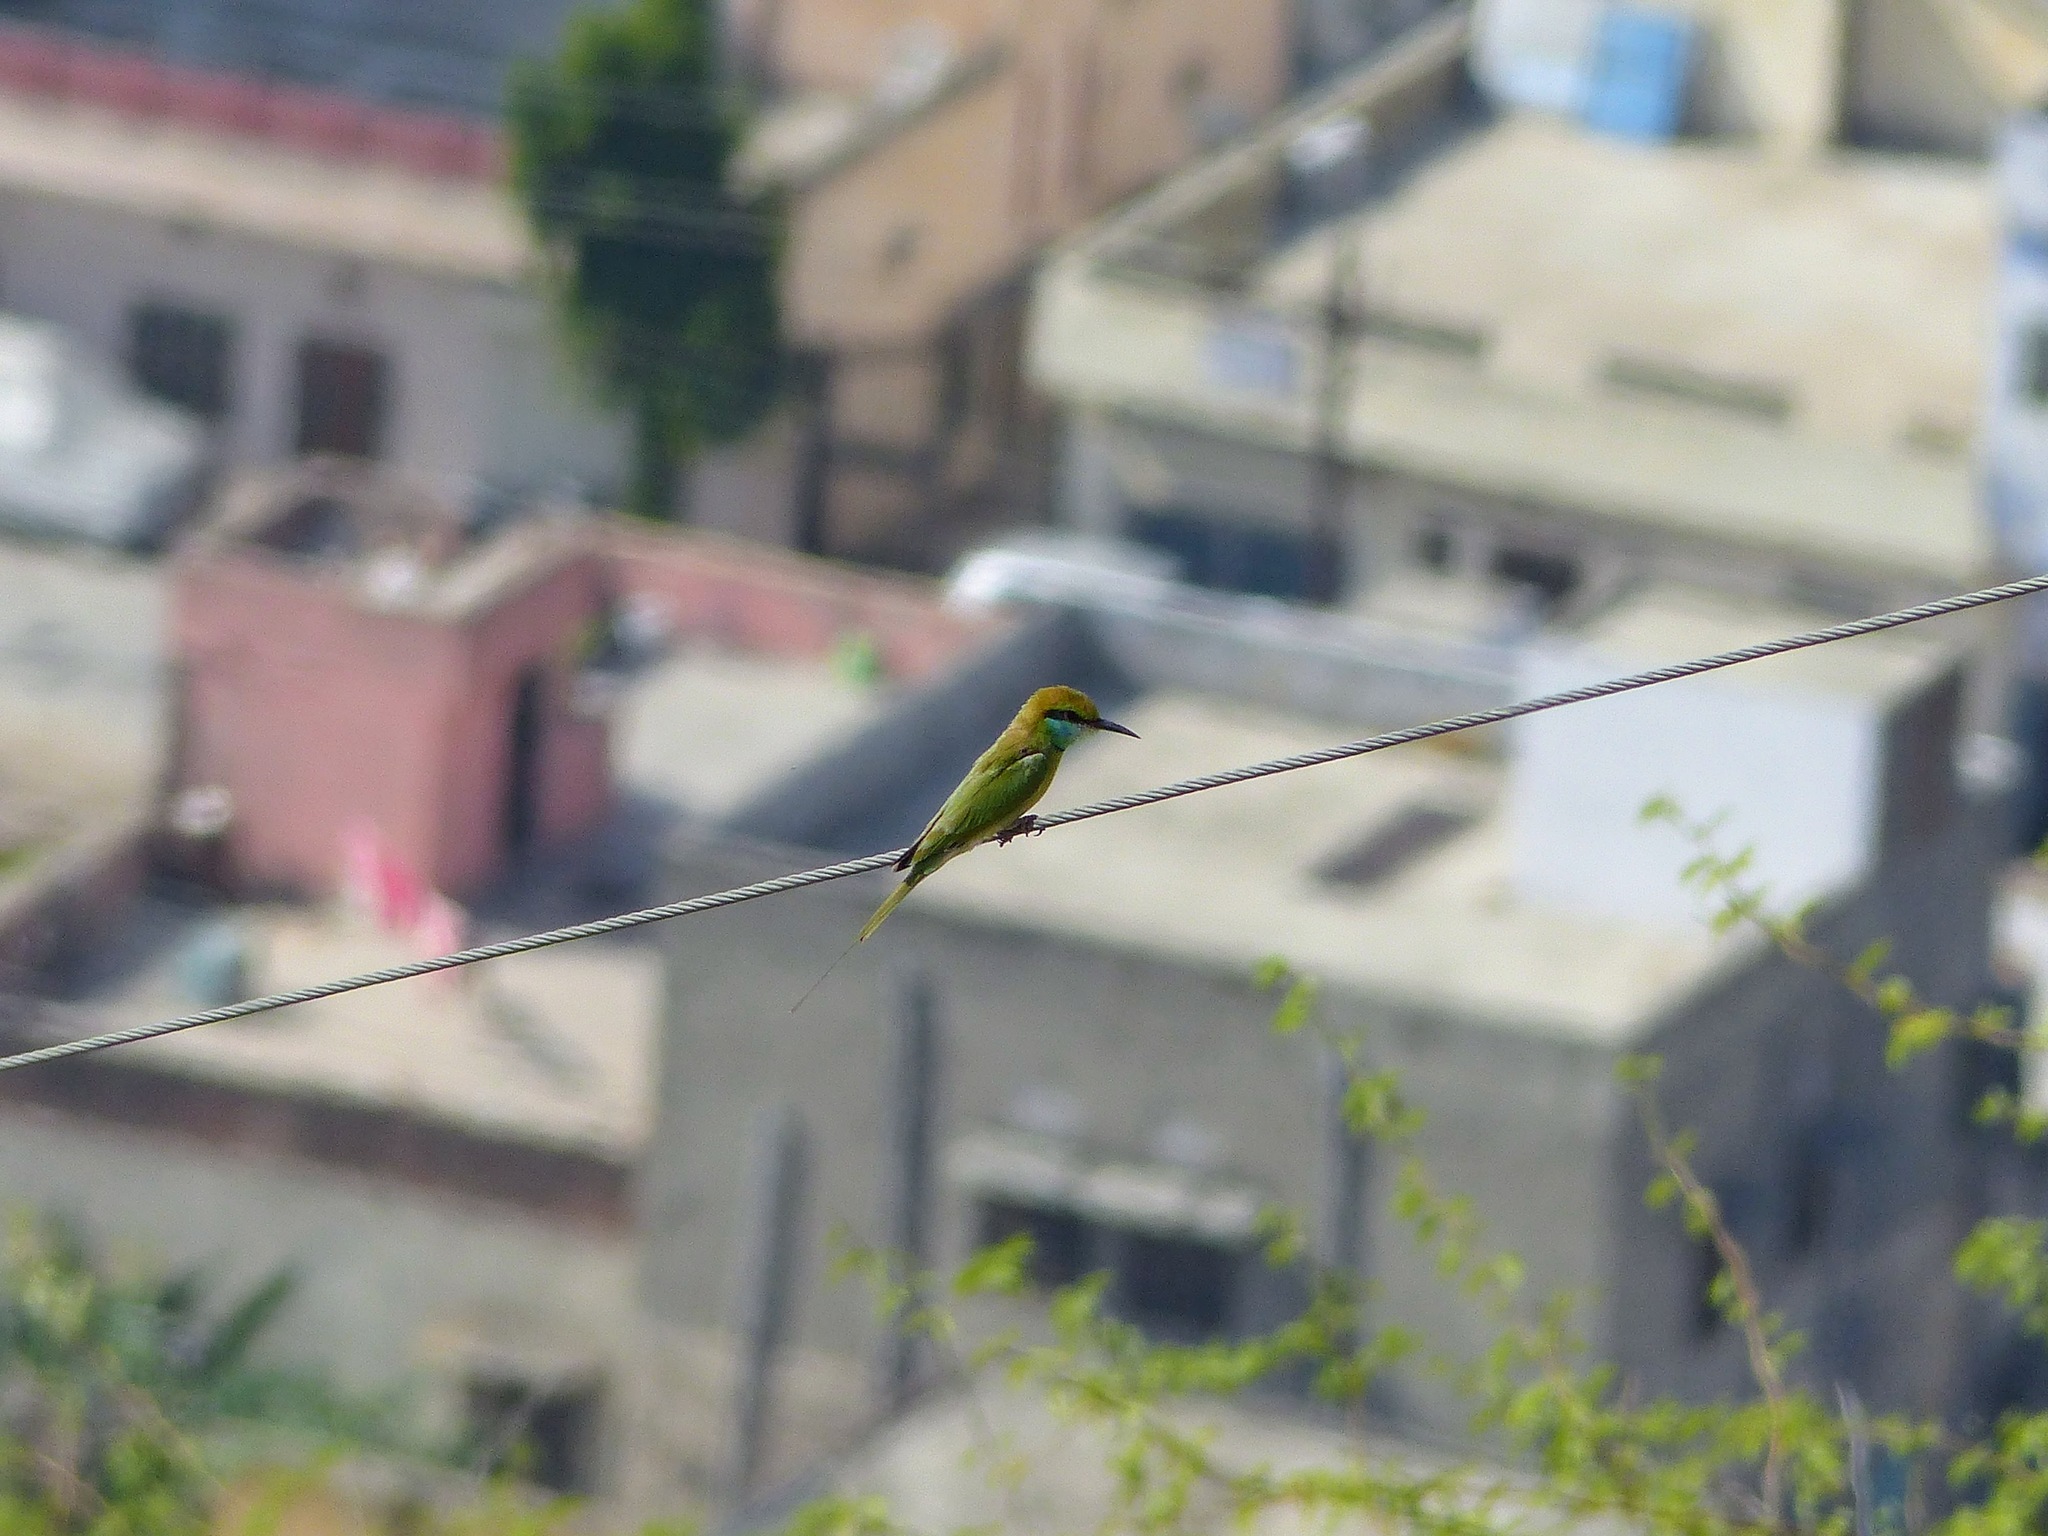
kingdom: Animalia
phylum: Chordata
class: Aves
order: Coraciiformes
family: Meropidae
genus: Merops
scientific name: Merops orientalis
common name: Green bee-eater
